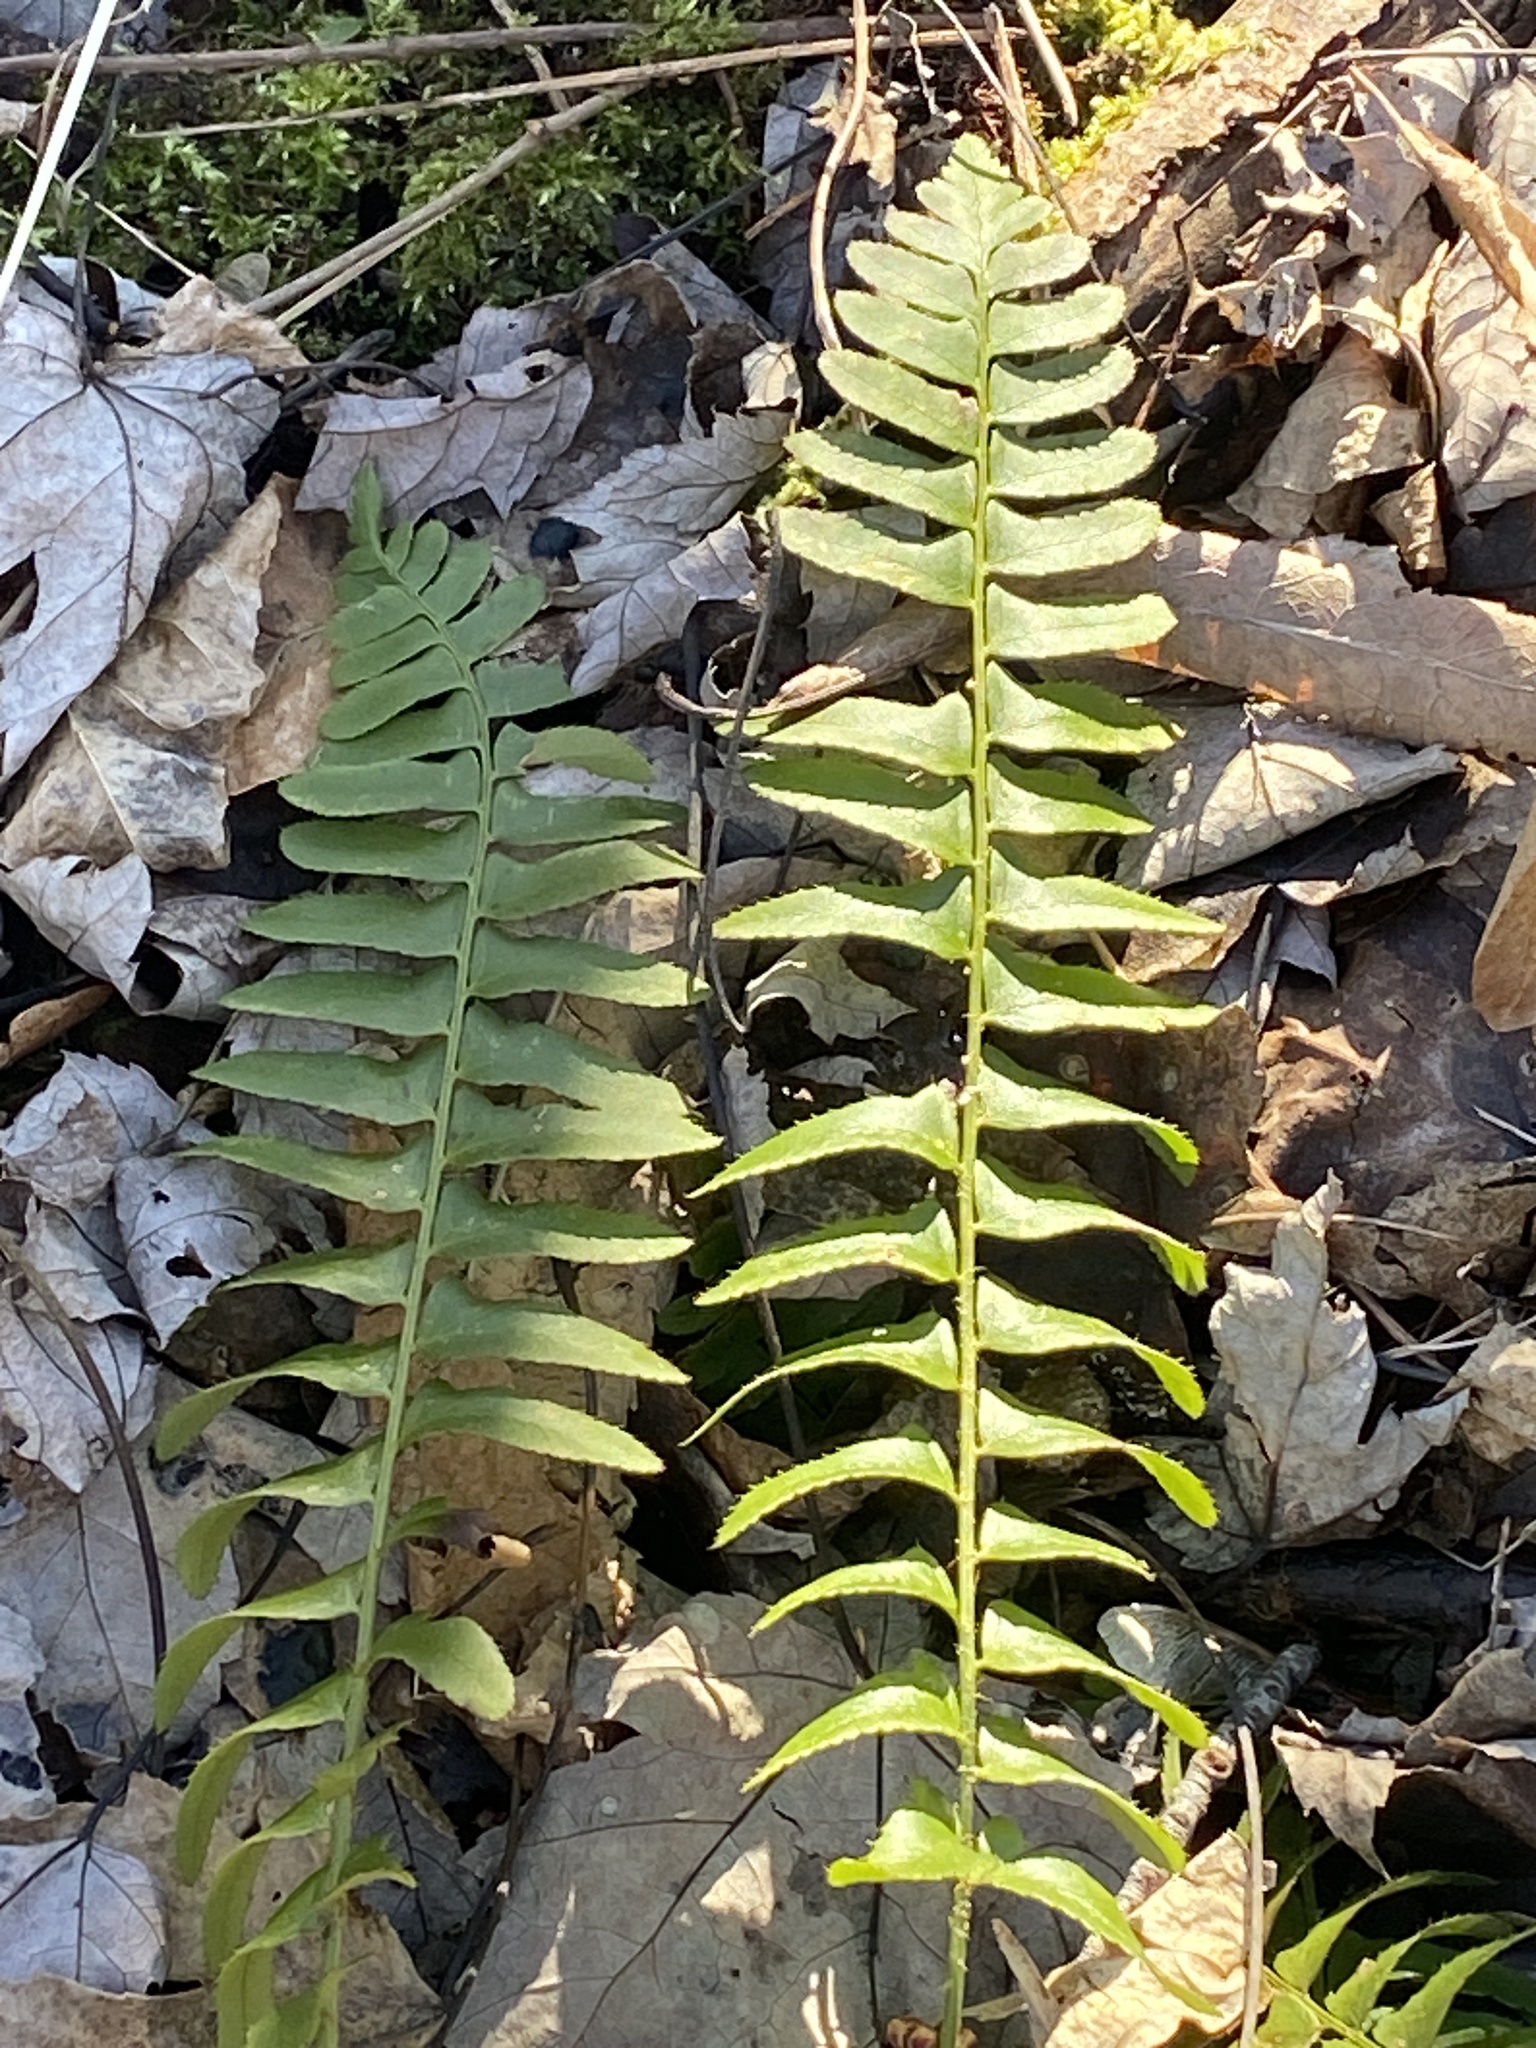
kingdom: Plantae
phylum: Tracheophyta
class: Polypodiopsida
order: Polypodiales
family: Dryopteridaceae
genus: Polystichum
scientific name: Polystichum acrostichoides
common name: Christmas fern
